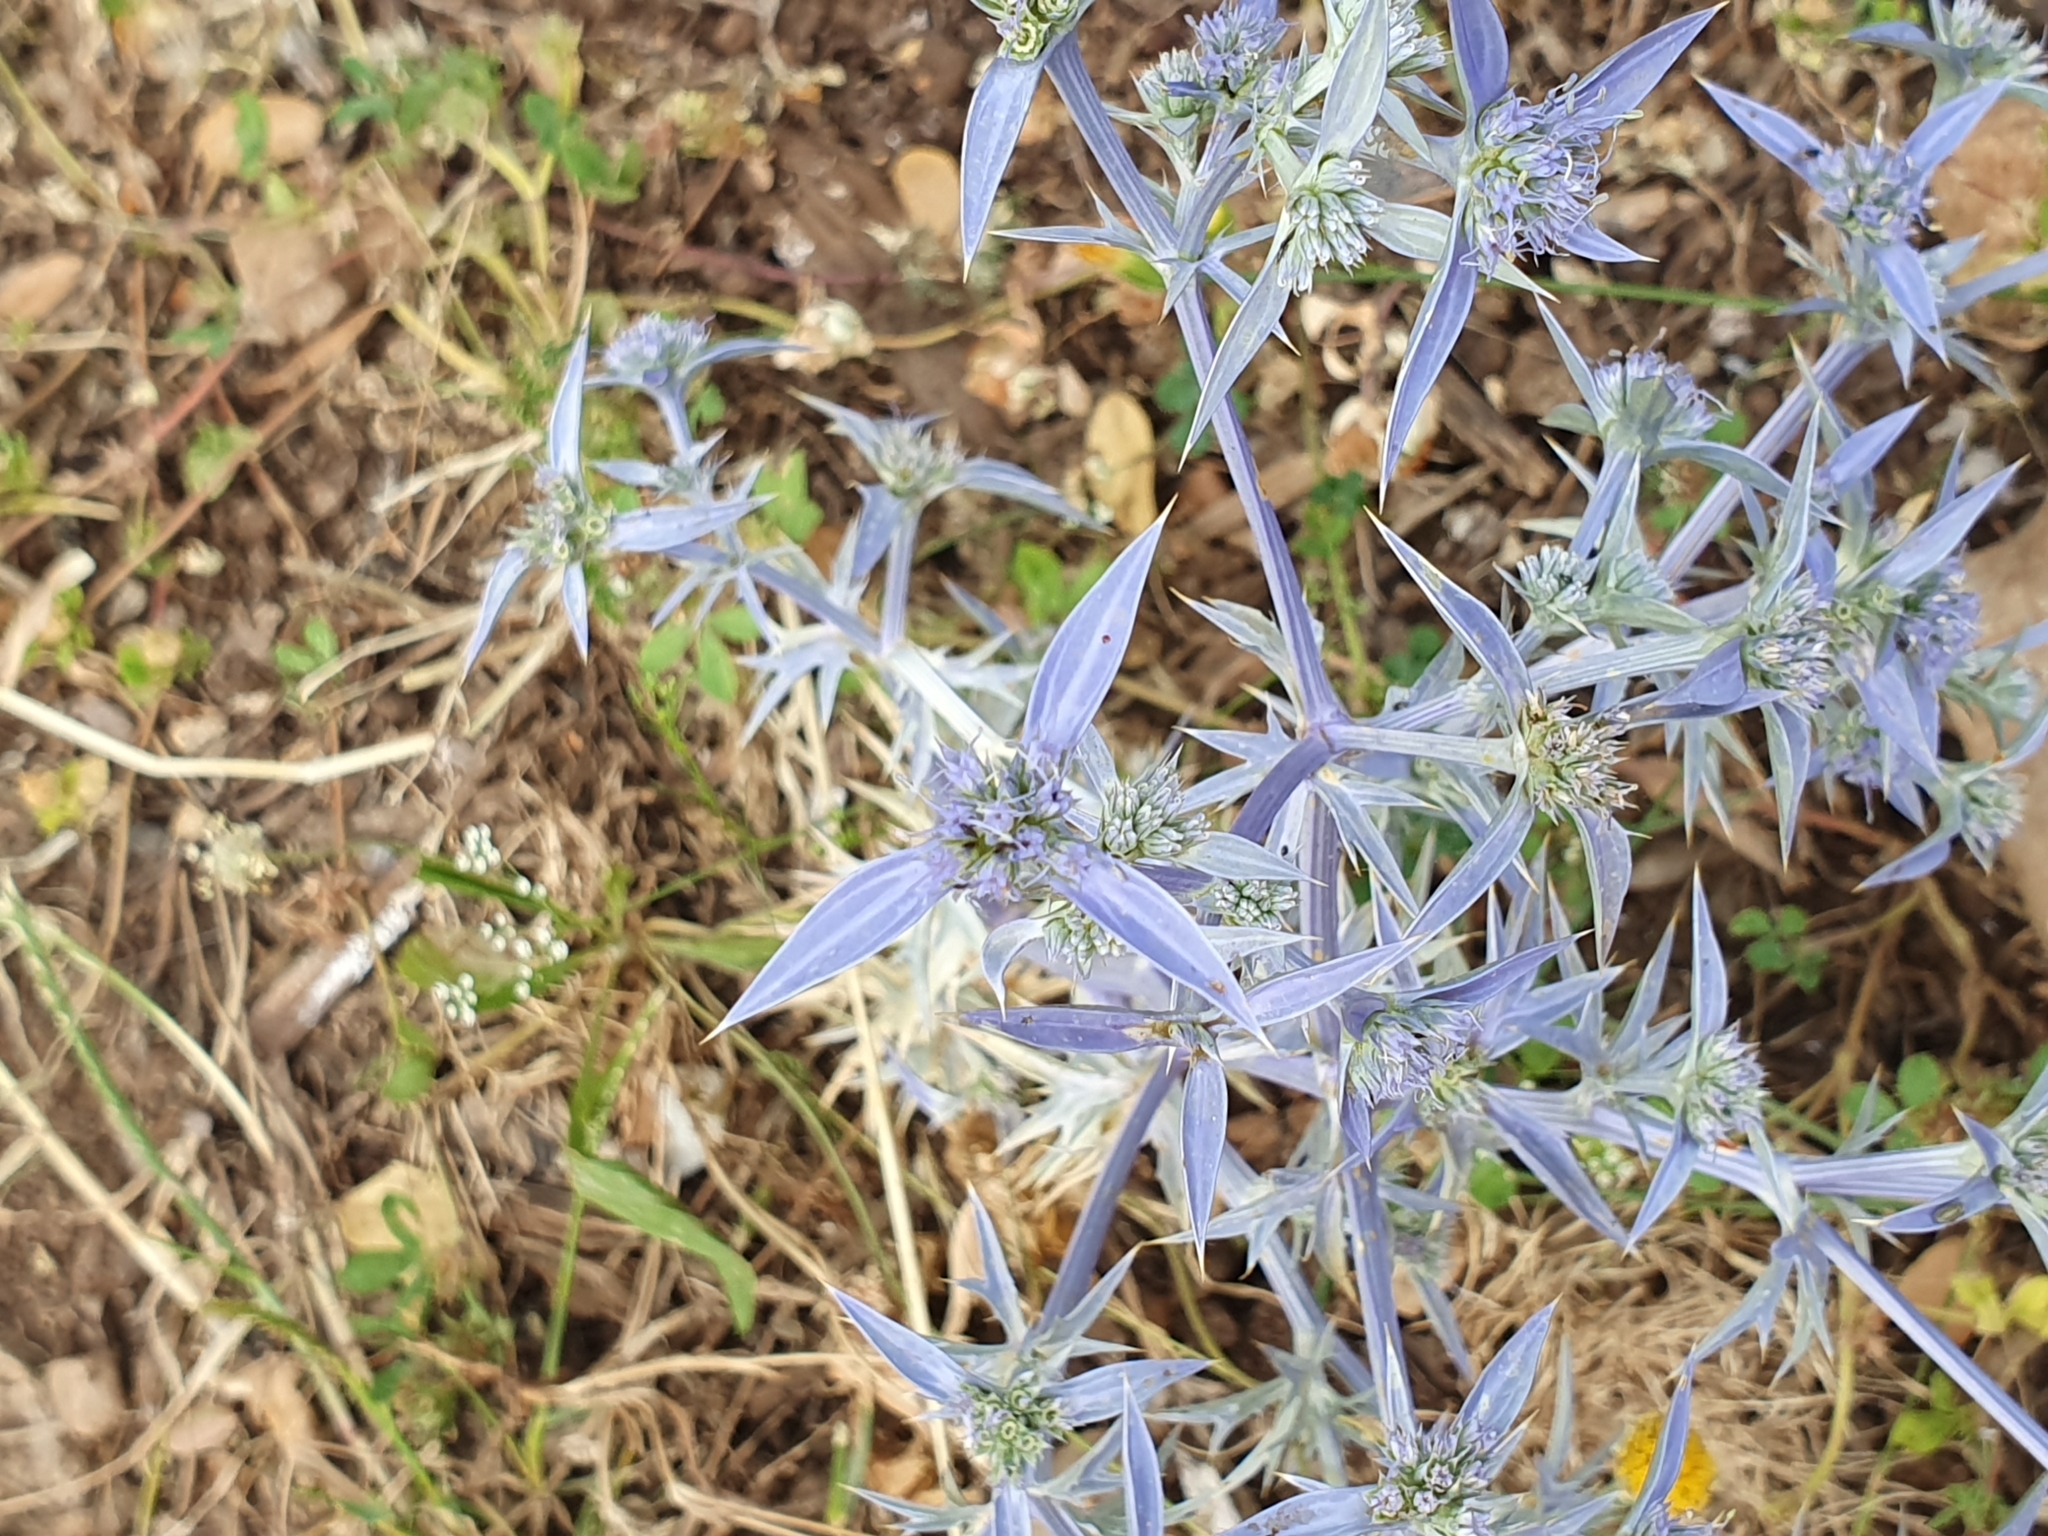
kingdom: Plantae
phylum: Tracheophyta
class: Magnoliopsida
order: Apiales
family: Apiaceae
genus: Eryngium
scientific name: Eryngium triquetrum
